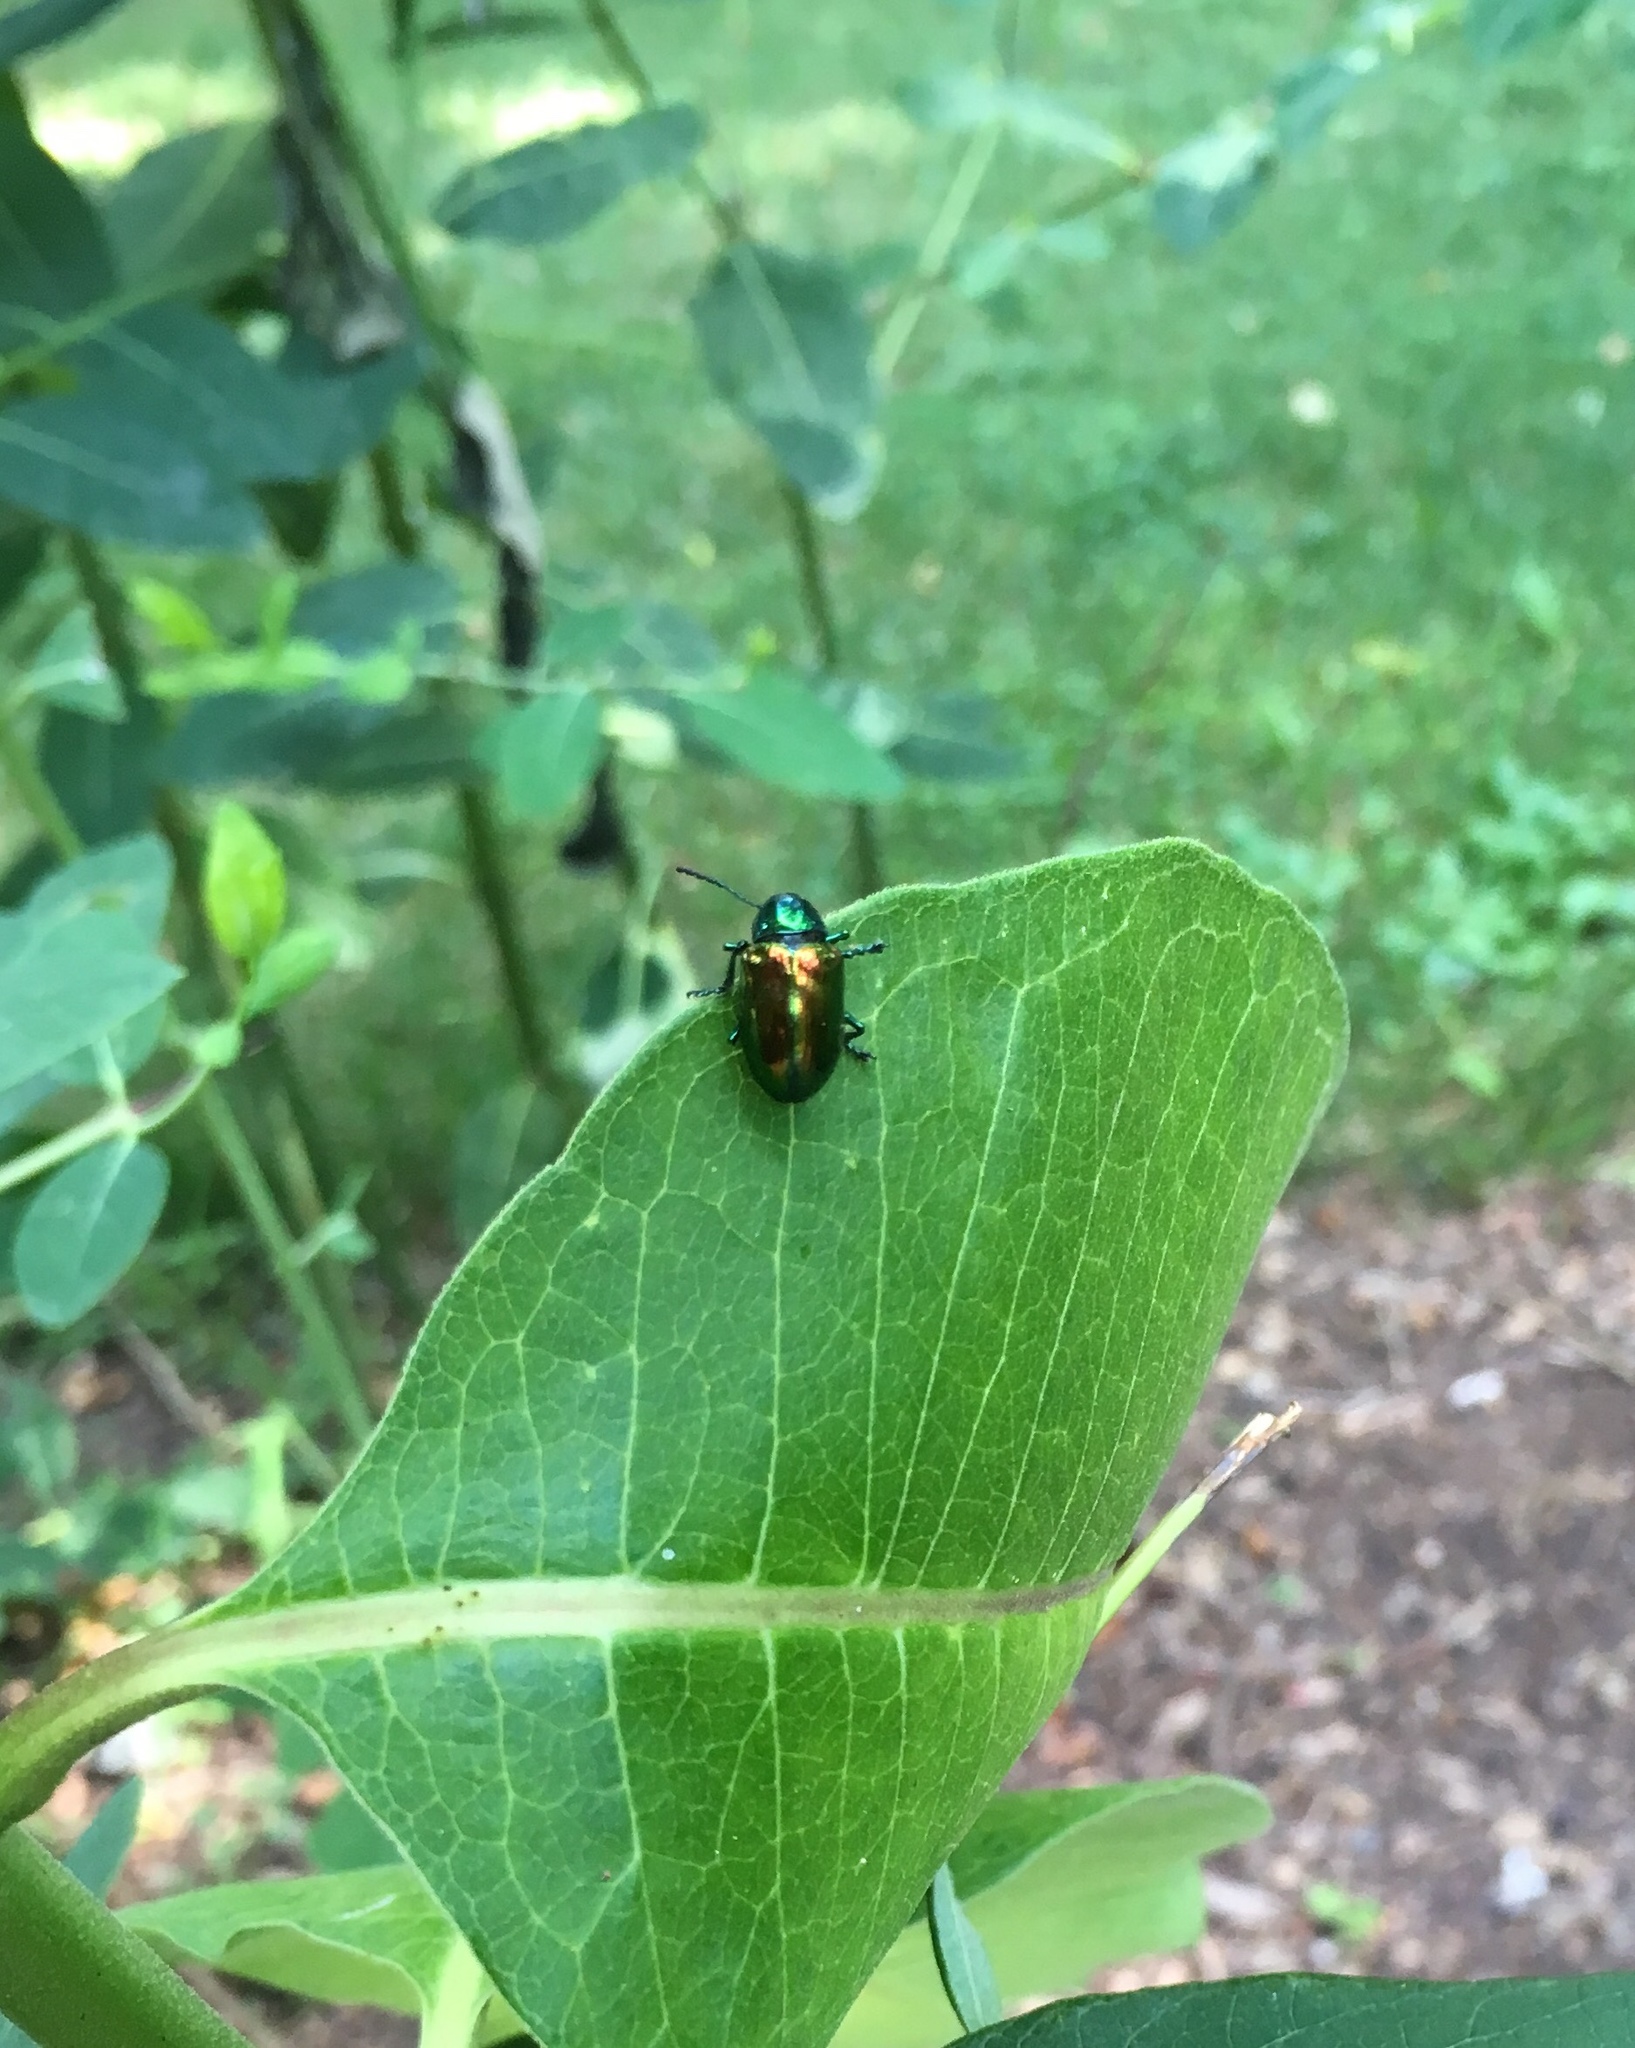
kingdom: Animalia
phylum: Arthropoda
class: Insecta
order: Coleoptera
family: Chrysomelidae
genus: Chrysochus
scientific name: Chrysochus auratus
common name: Dogbane leaf beetle
